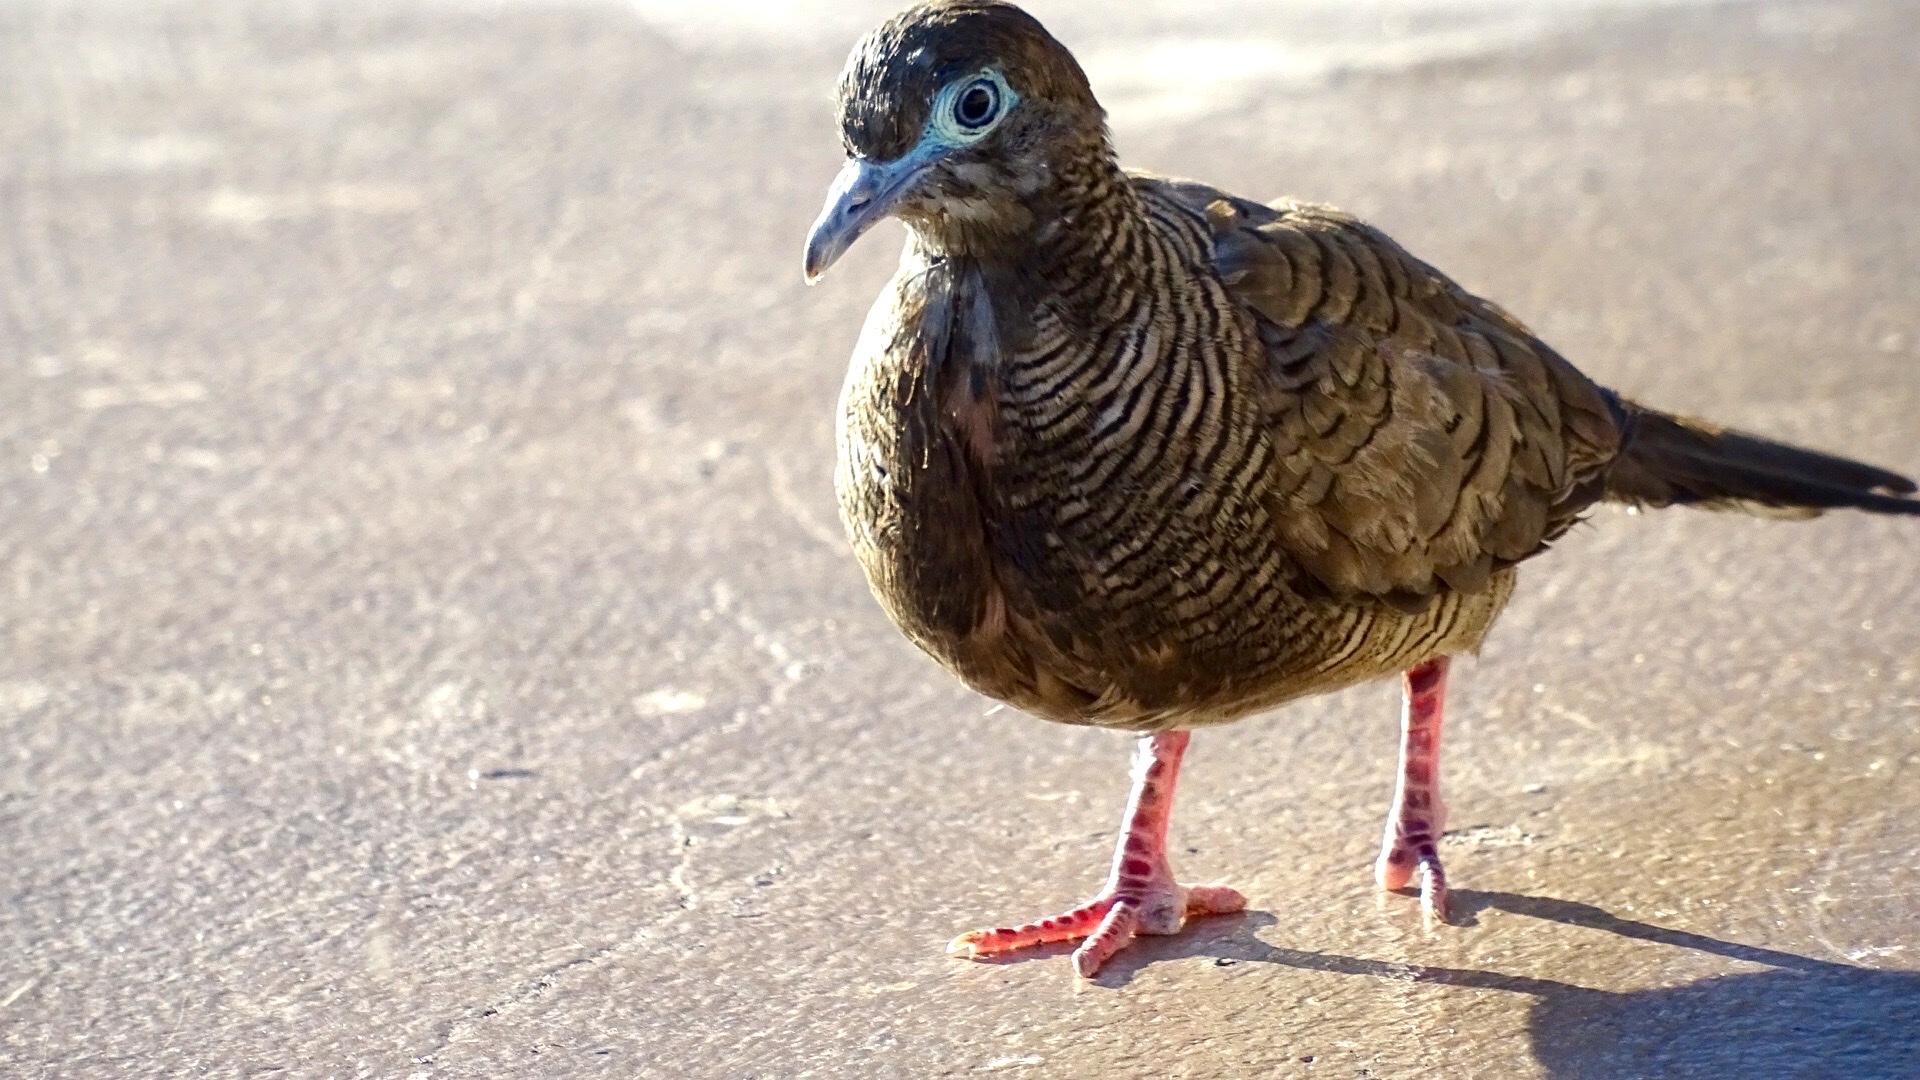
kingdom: Animalia
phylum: Chordata
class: Aves
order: Columbiformes
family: Columbidae
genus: Geopelia
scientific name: Geopelia striata
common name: Zebra dove
